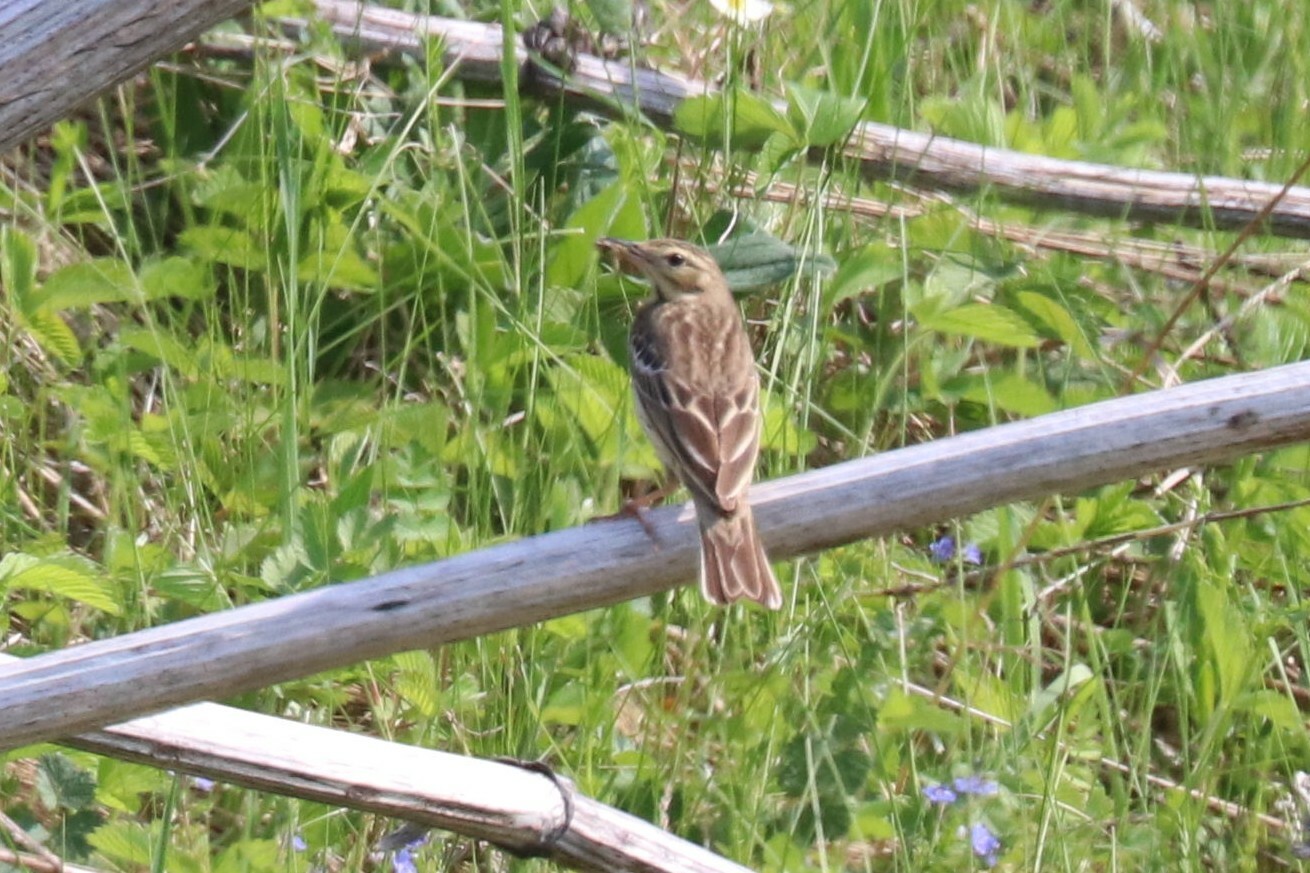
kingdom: Animalia
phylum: Chordata
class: Aves
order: Passeriformes
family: Motacillidae
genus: Anthus
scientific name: Anthus trivialis
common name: Tree pipit
